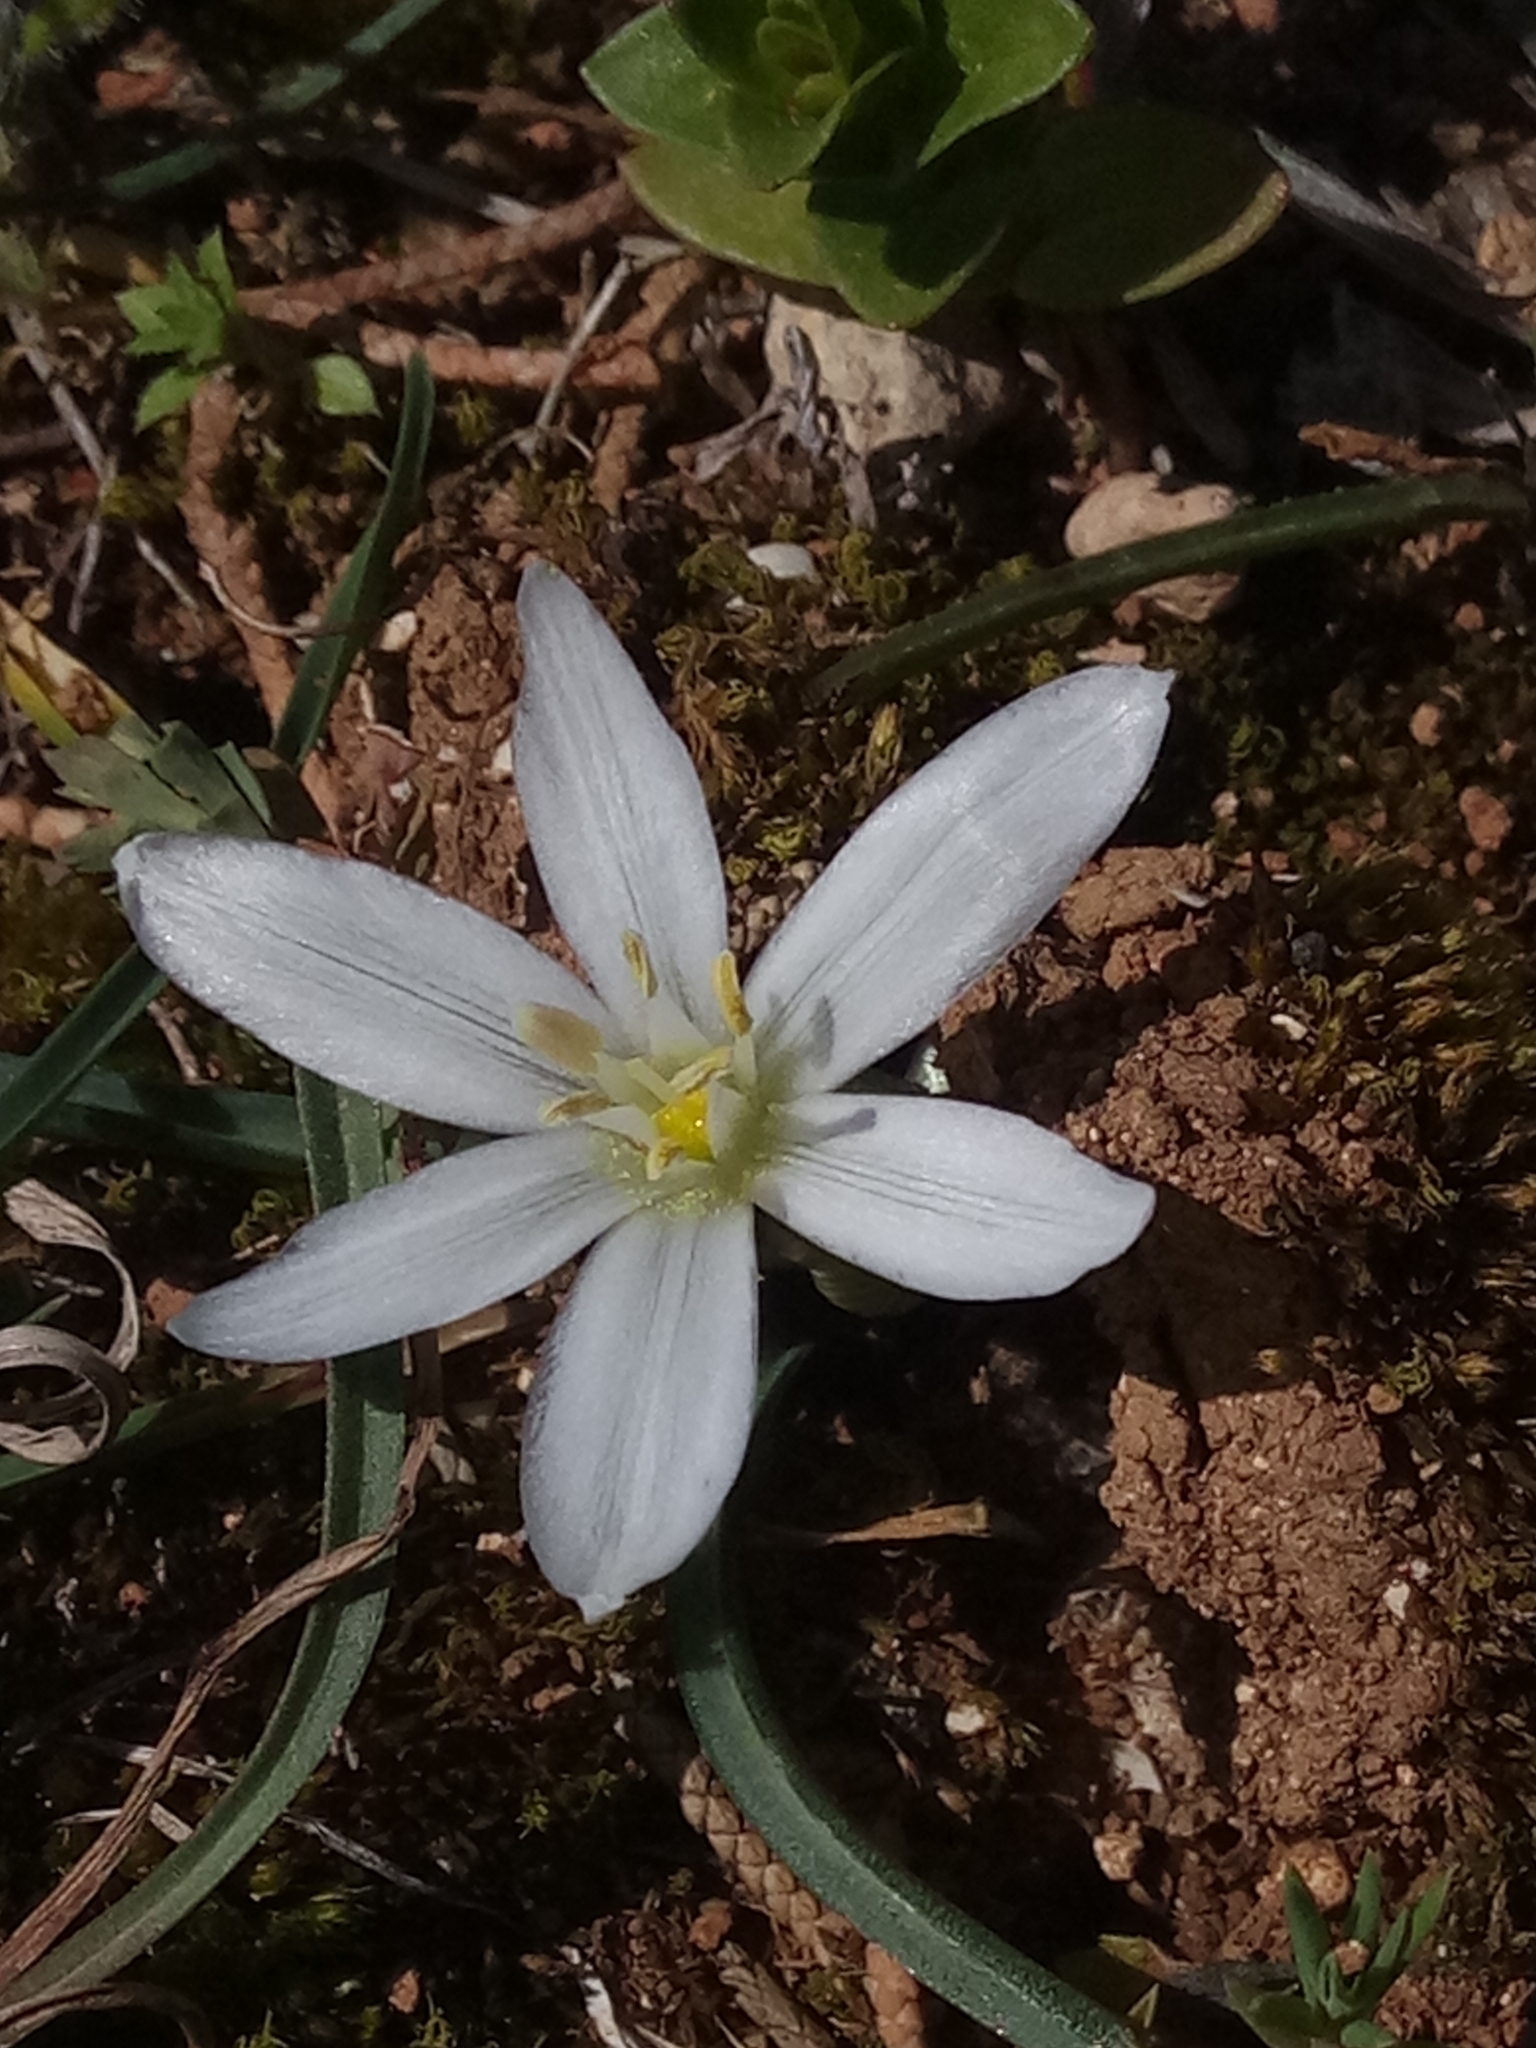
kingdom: Plantae
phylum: Tracheophyta
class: Liliopsida
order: Asparagales
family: Asparagaceae
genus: Ornithogalum
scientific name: Ornithogalum baeticum
